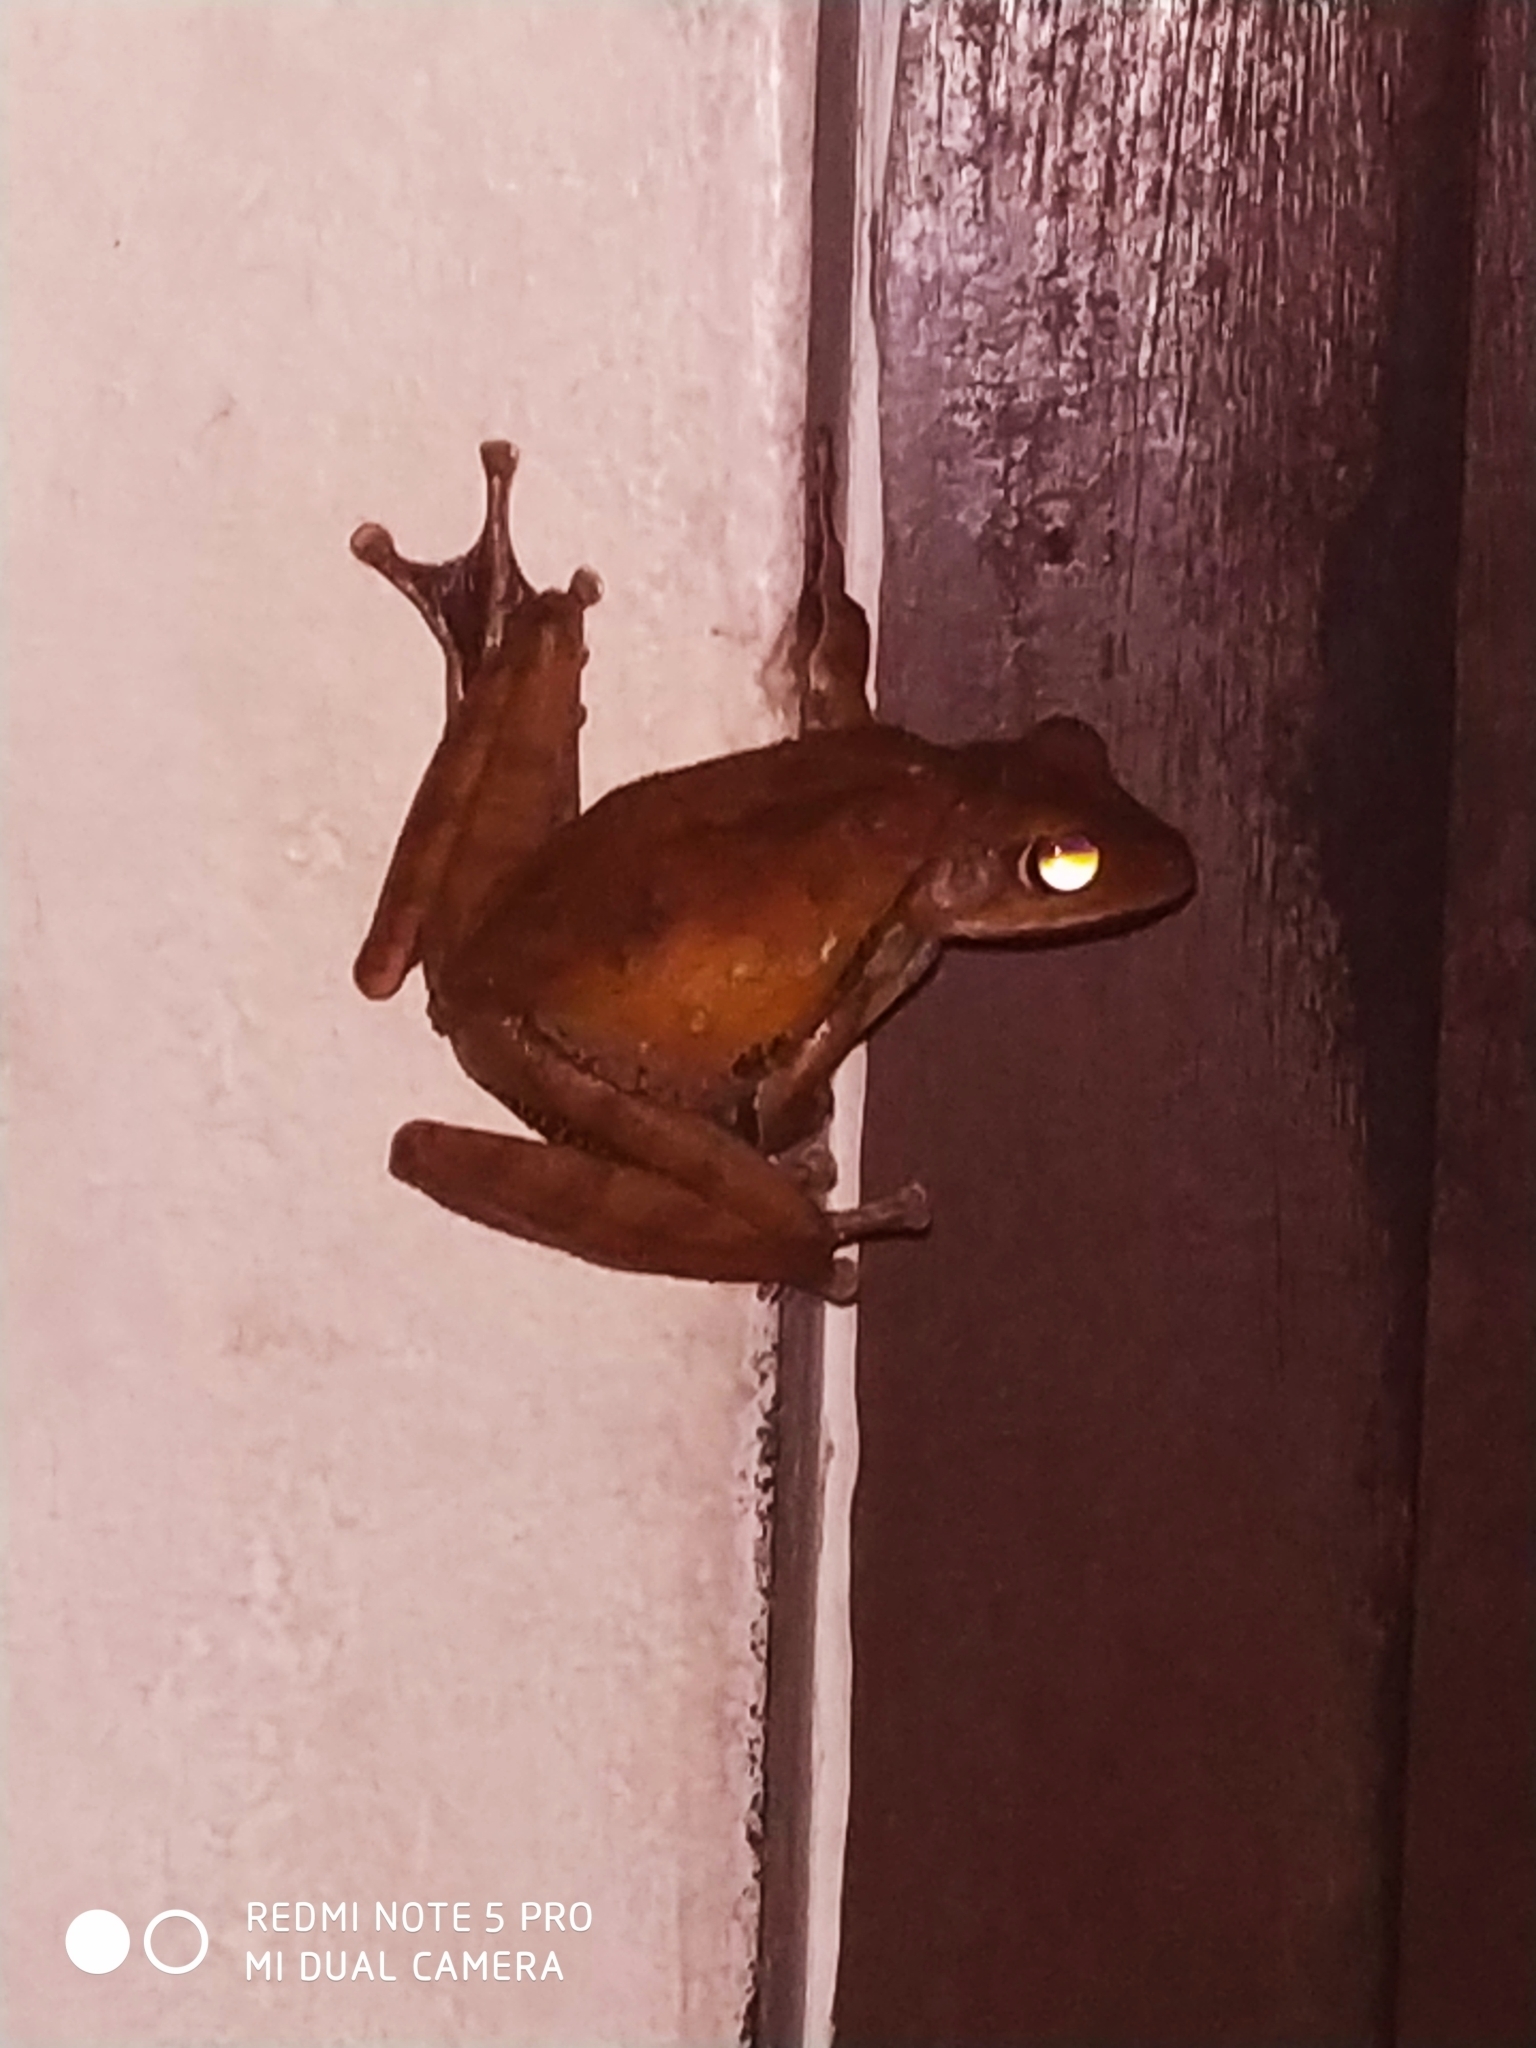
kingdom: Animalia
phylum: Chordata
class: Amphibia
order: Anura
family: Rhacophoridae
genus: Polypedates
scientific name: Polypedates occidentalis
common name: Charpa tree frog
